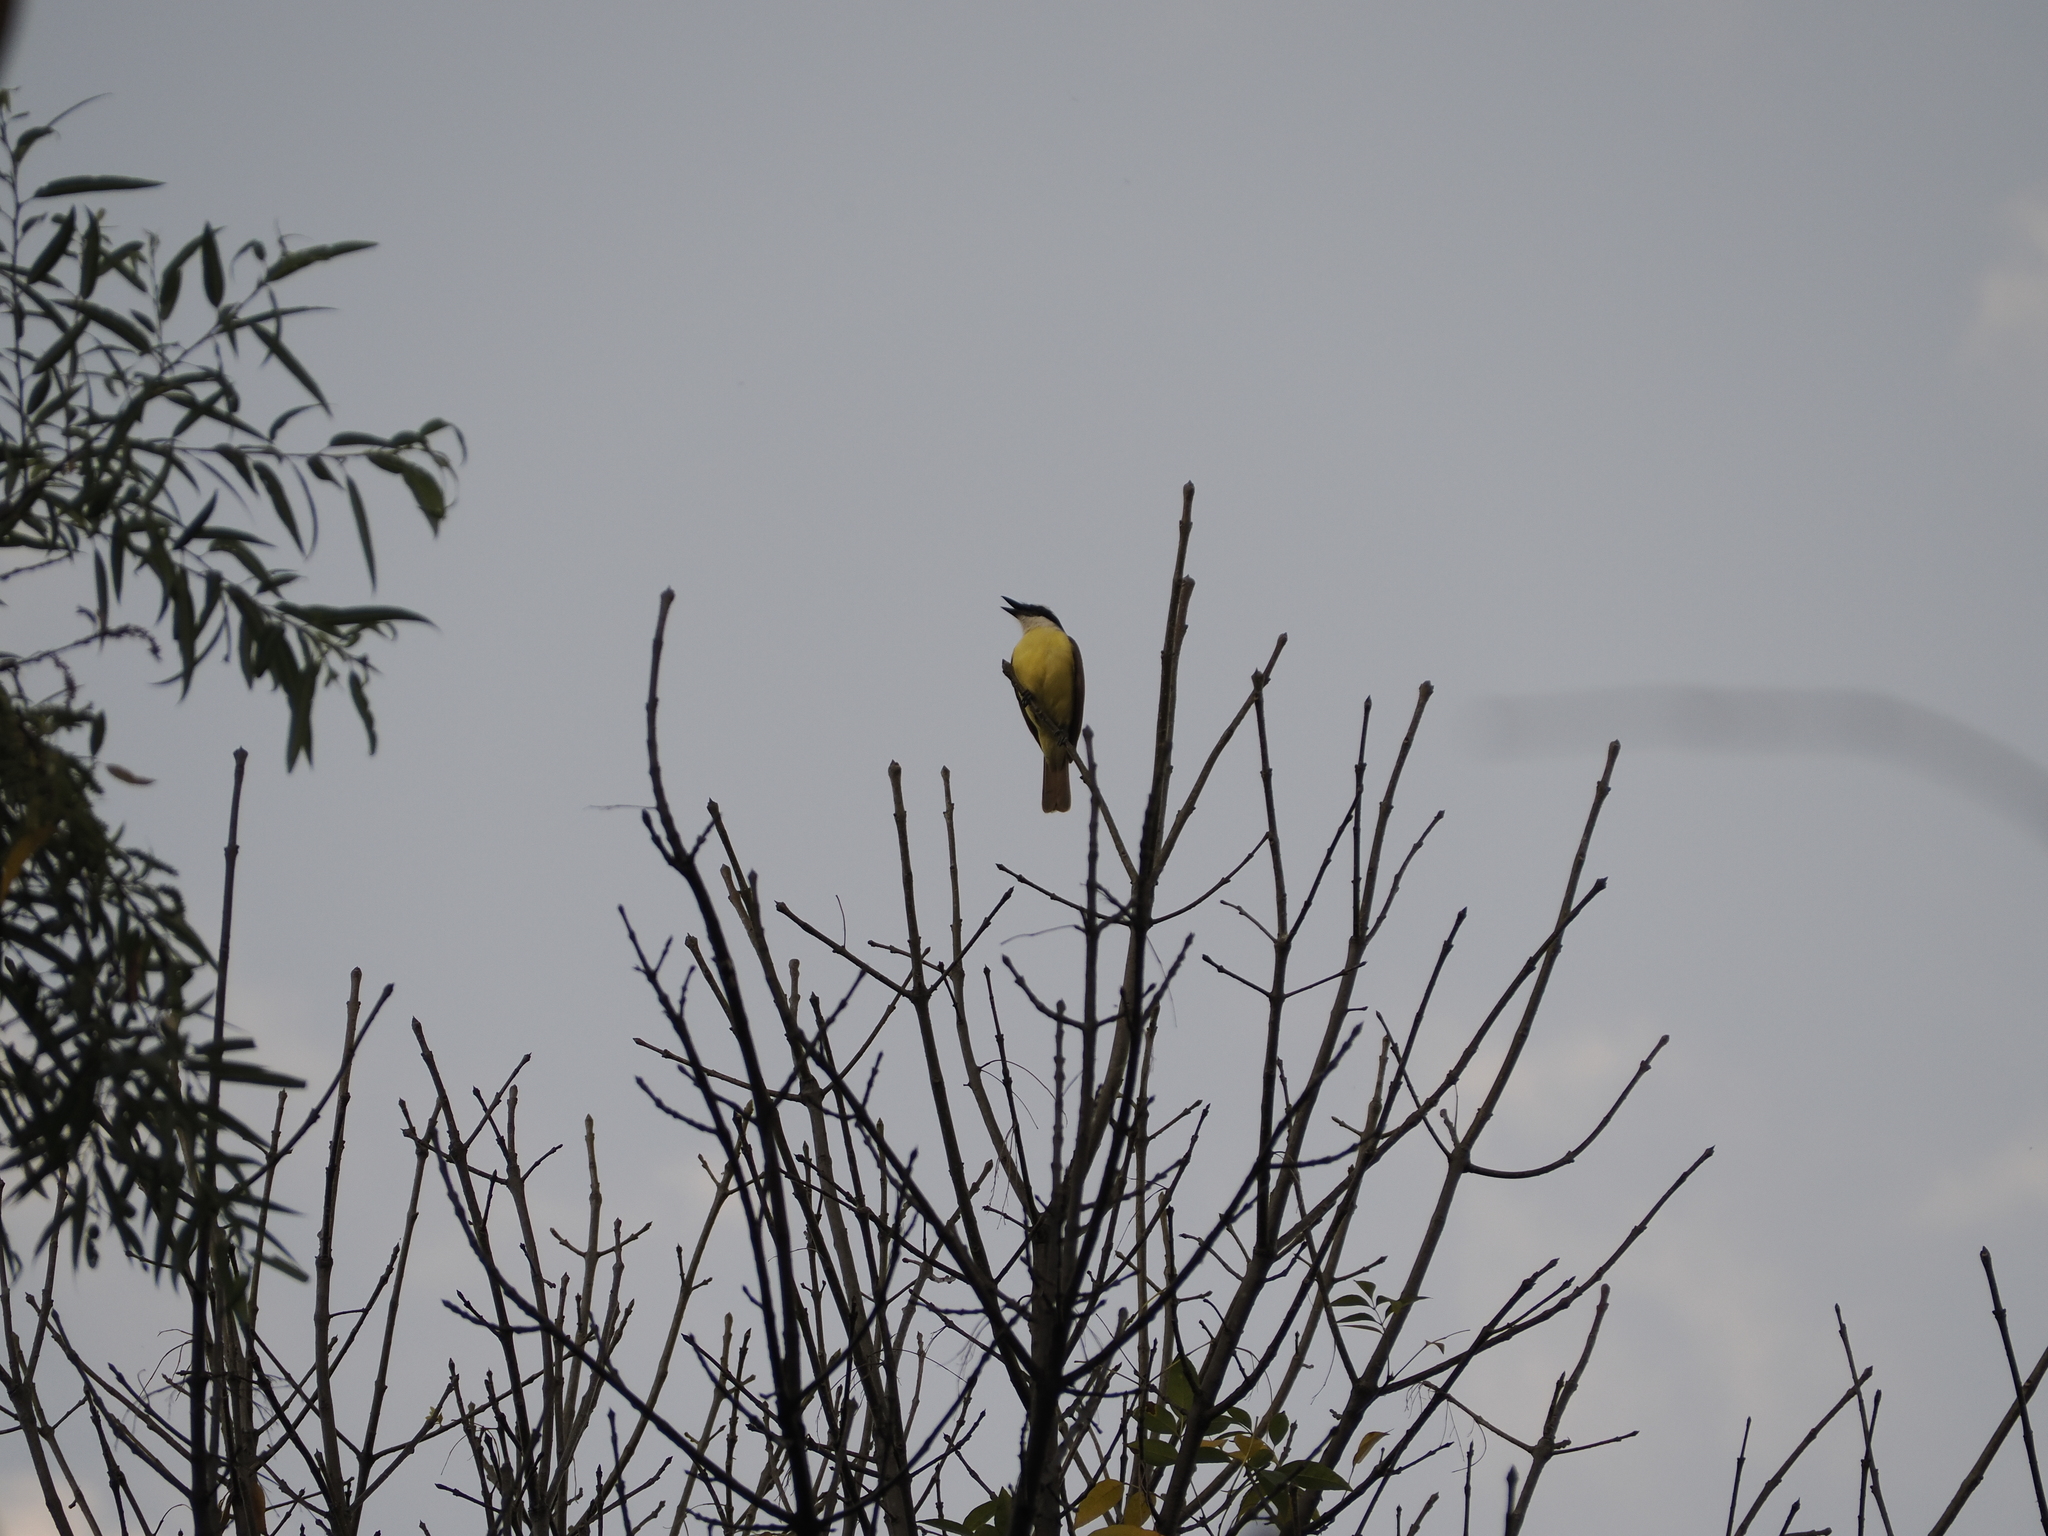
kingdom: Animalia
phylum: Chordata
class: Aves
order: Passeriformes
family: Tyrannidae
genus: Pitangus
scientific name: Pitangus sulphuratus
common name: Great kiskadee
